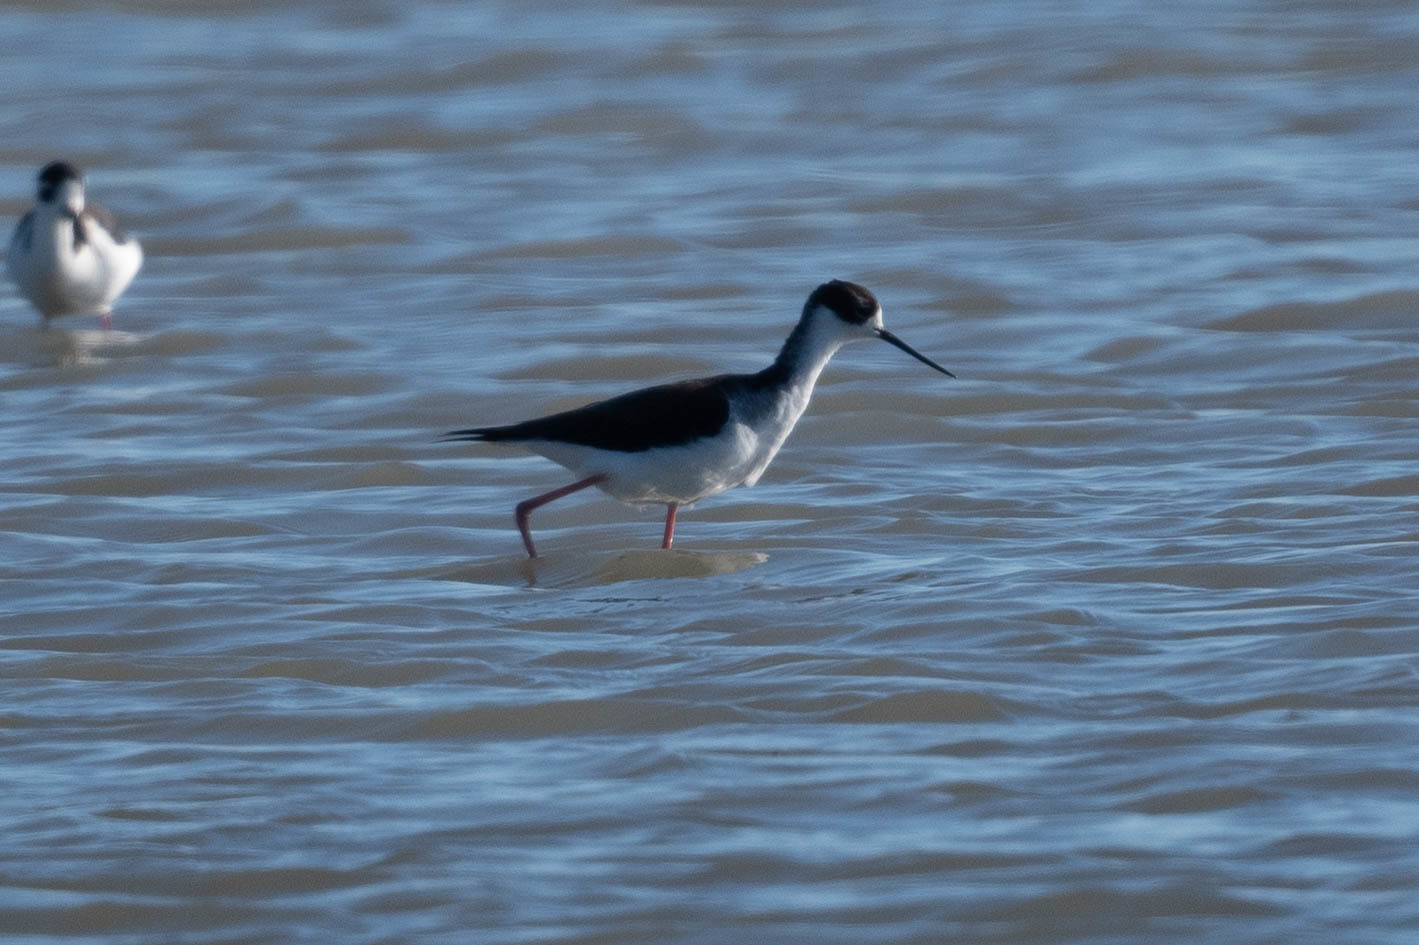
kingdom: Animalia
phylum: Chordata
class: Aves
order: Charadriiformes
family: Recurvirostridae
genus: Himantopus
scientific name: Himantopus mexicanus
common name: Black-necked stilt
